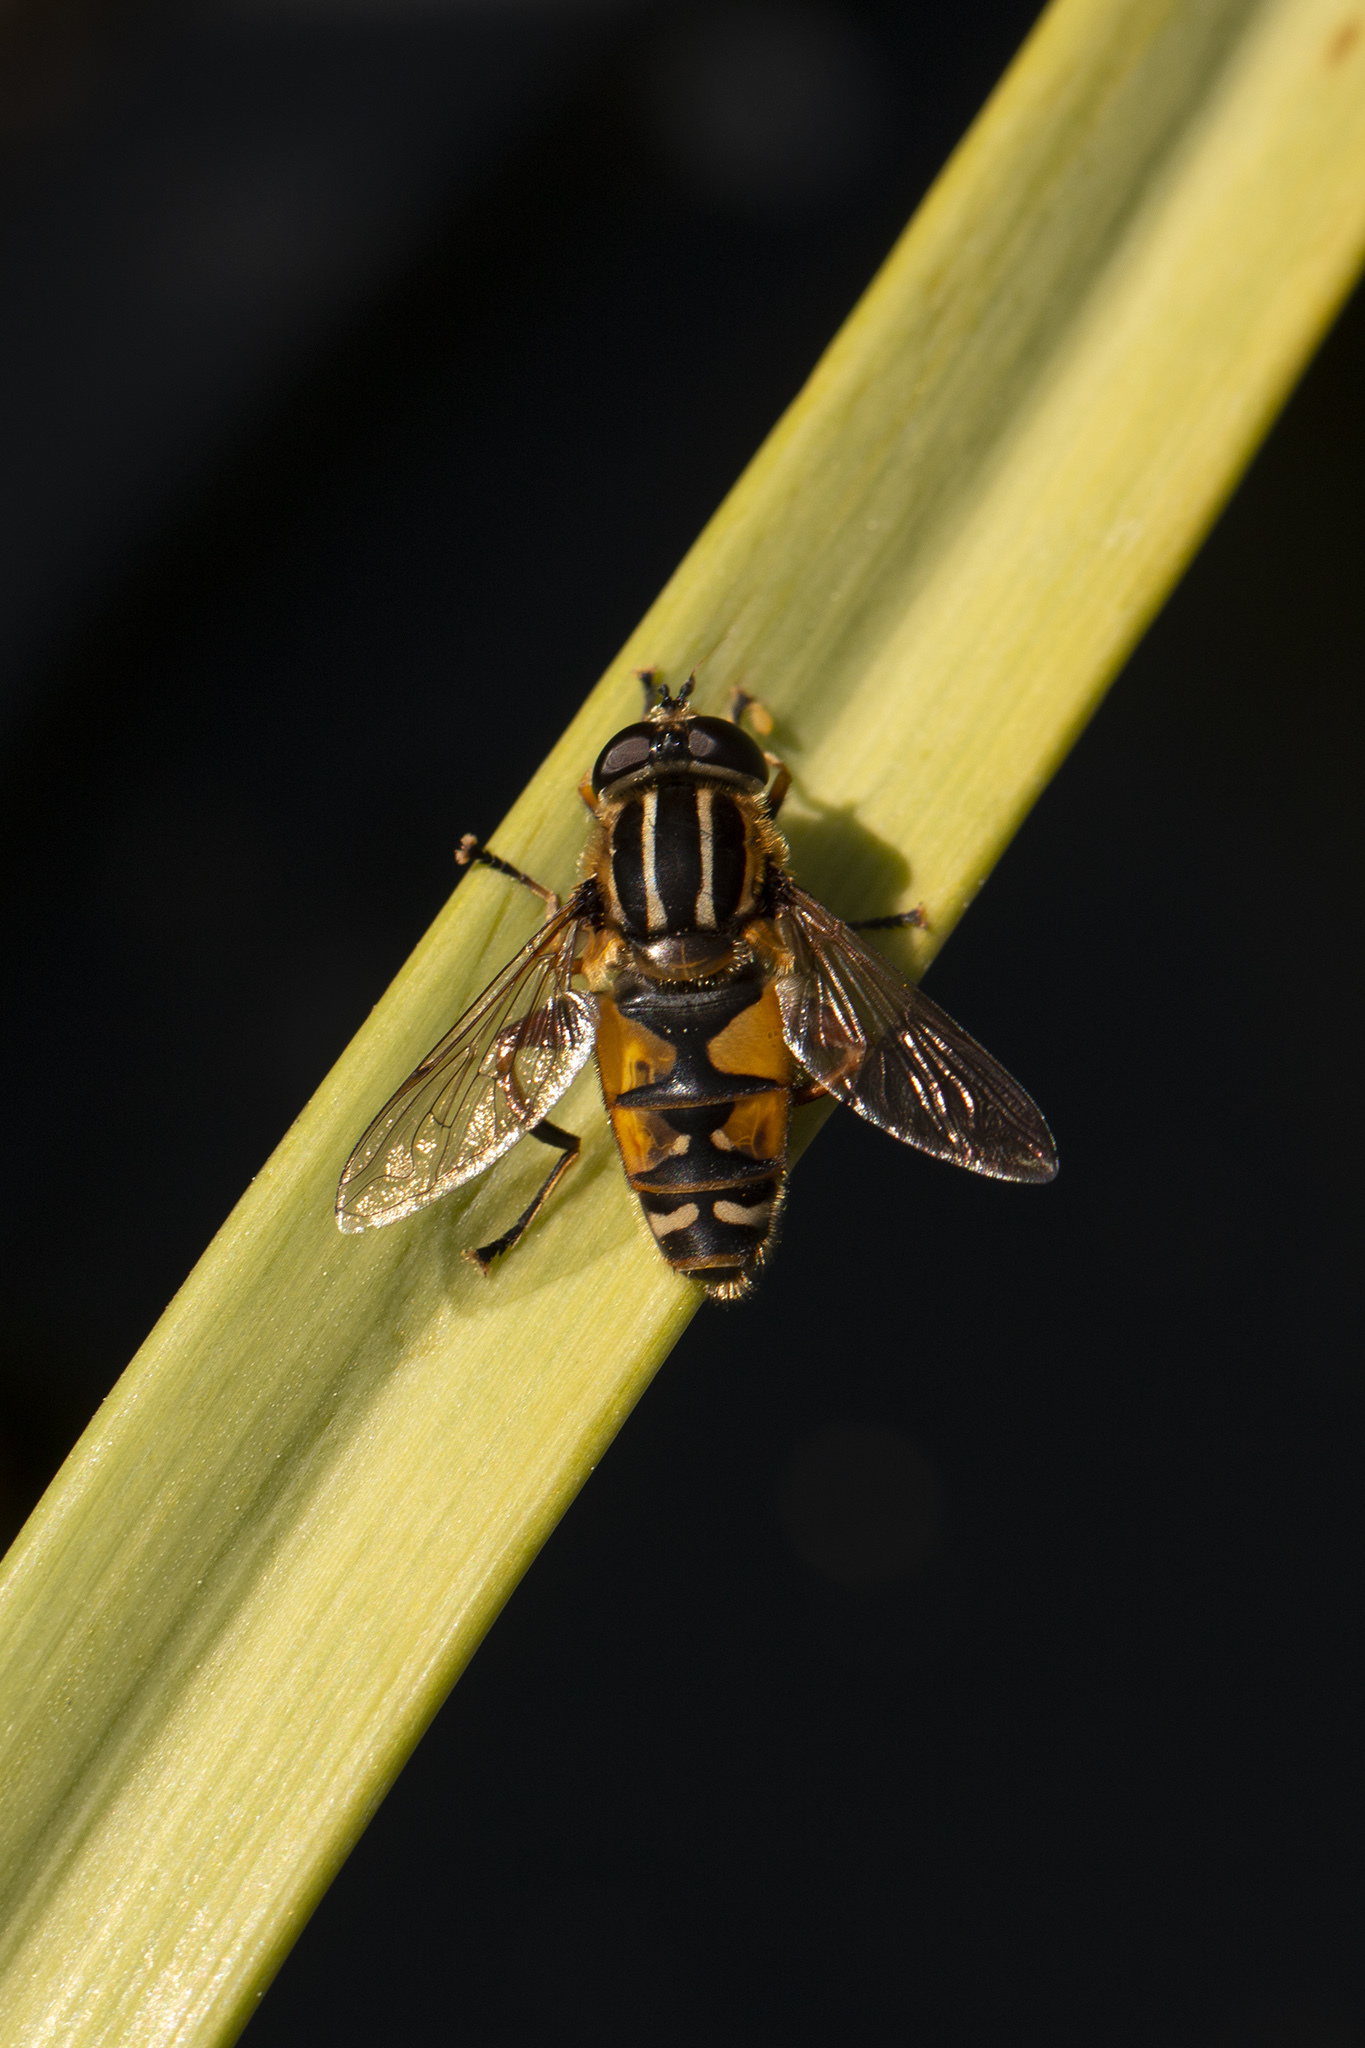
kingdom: Animalia
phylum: Arthropoda
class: Insecta
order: Diptera
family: Syrphidae
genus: Helophilus
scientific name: Helophilus pendulus
